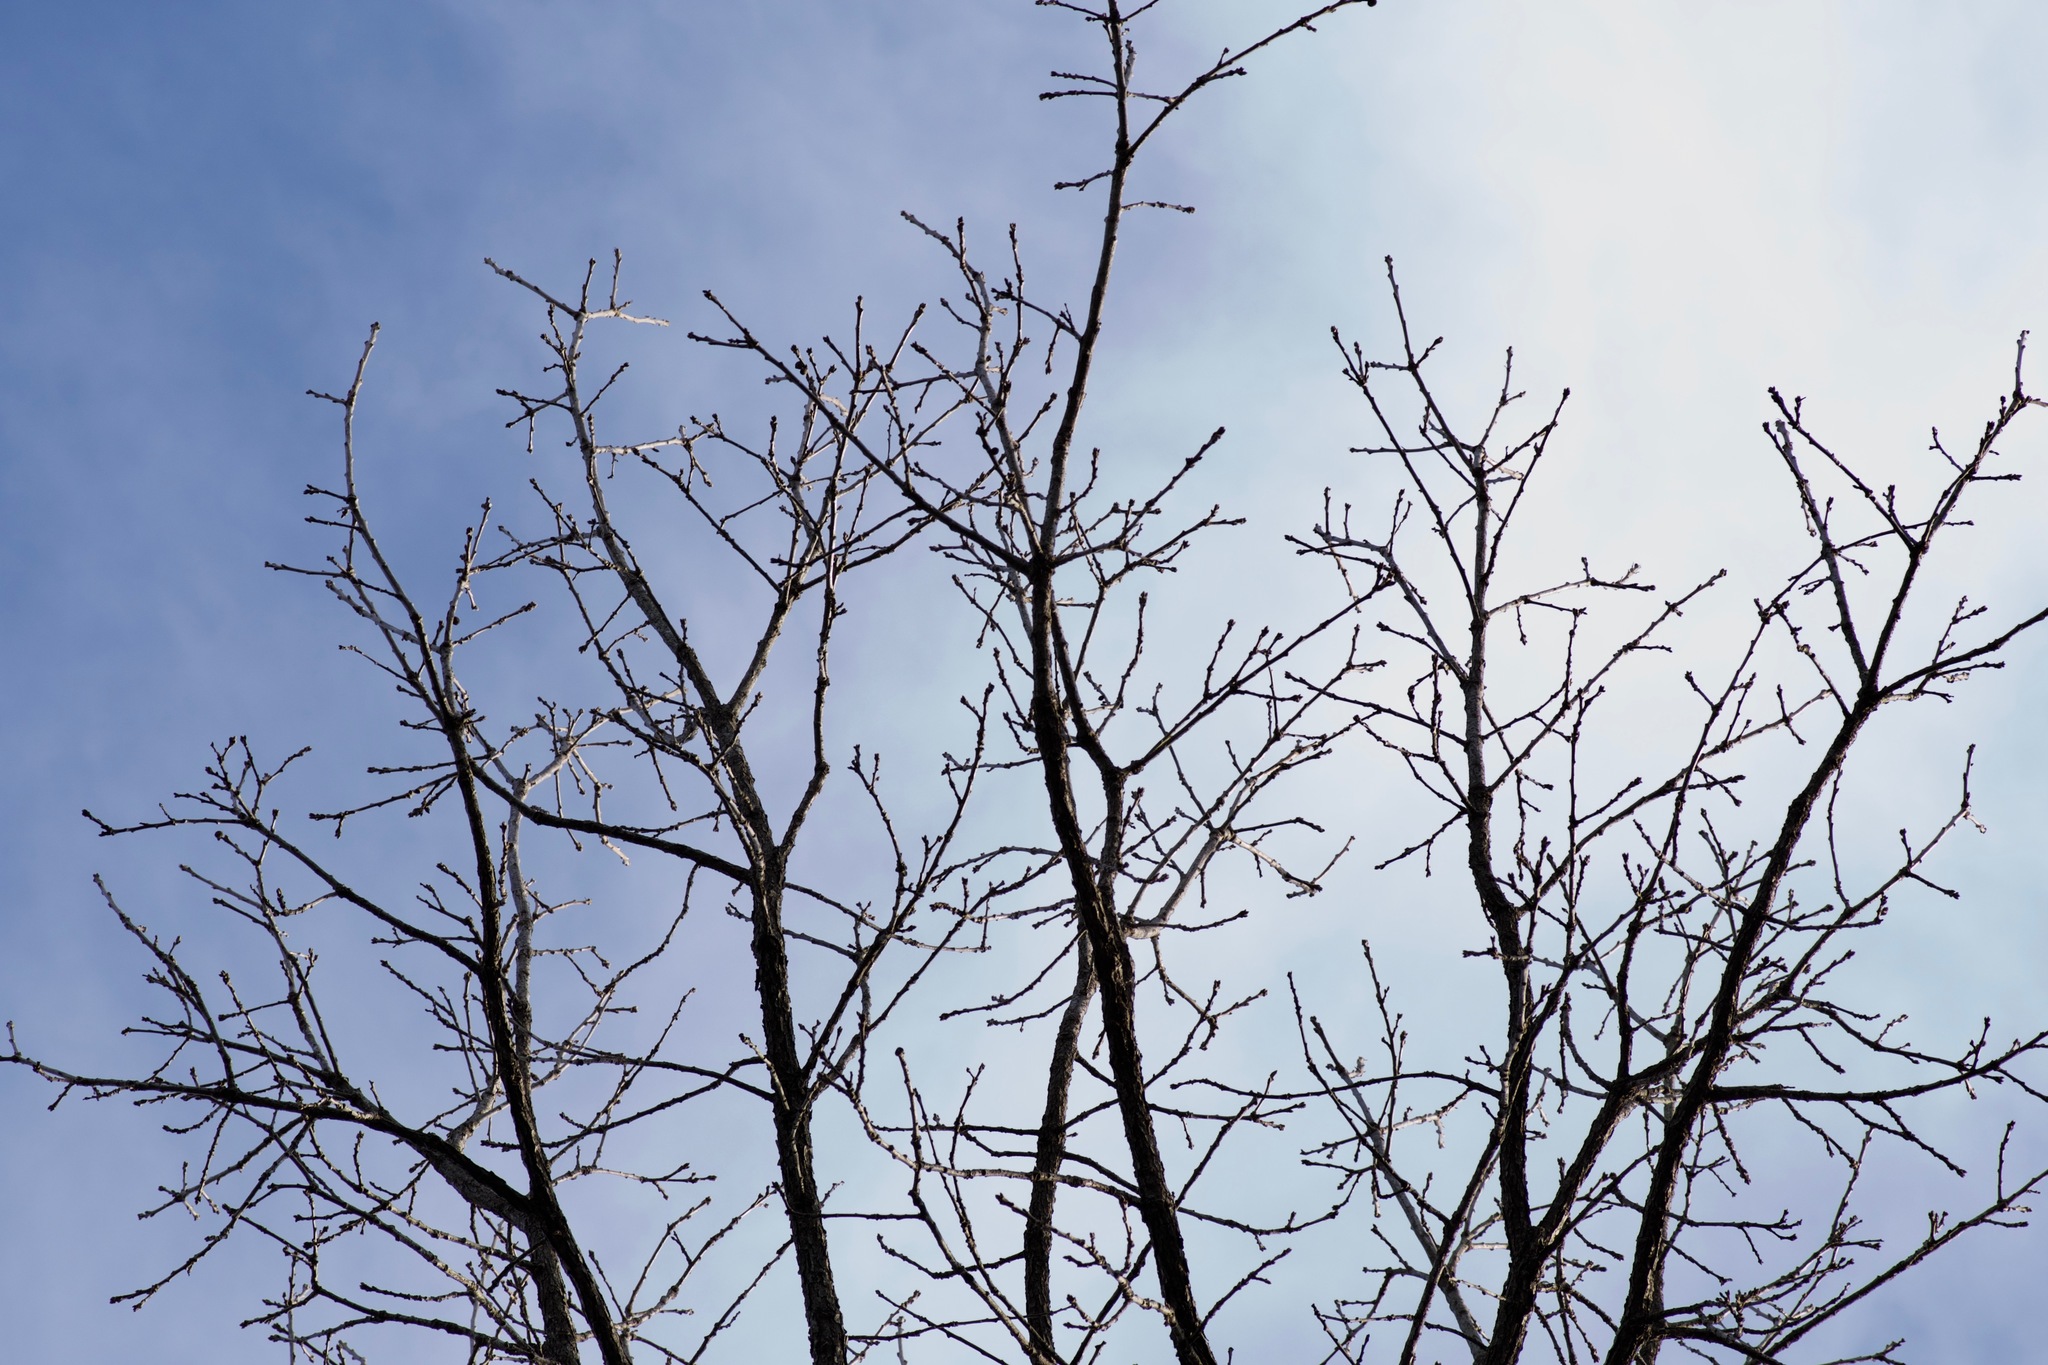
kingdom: Plantae
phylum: Tracheophyta
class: Magnoliopsida
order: Fagales
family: Fagaceae
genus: Quercus
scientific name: Quercus macrocarpa
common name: Bur oak
